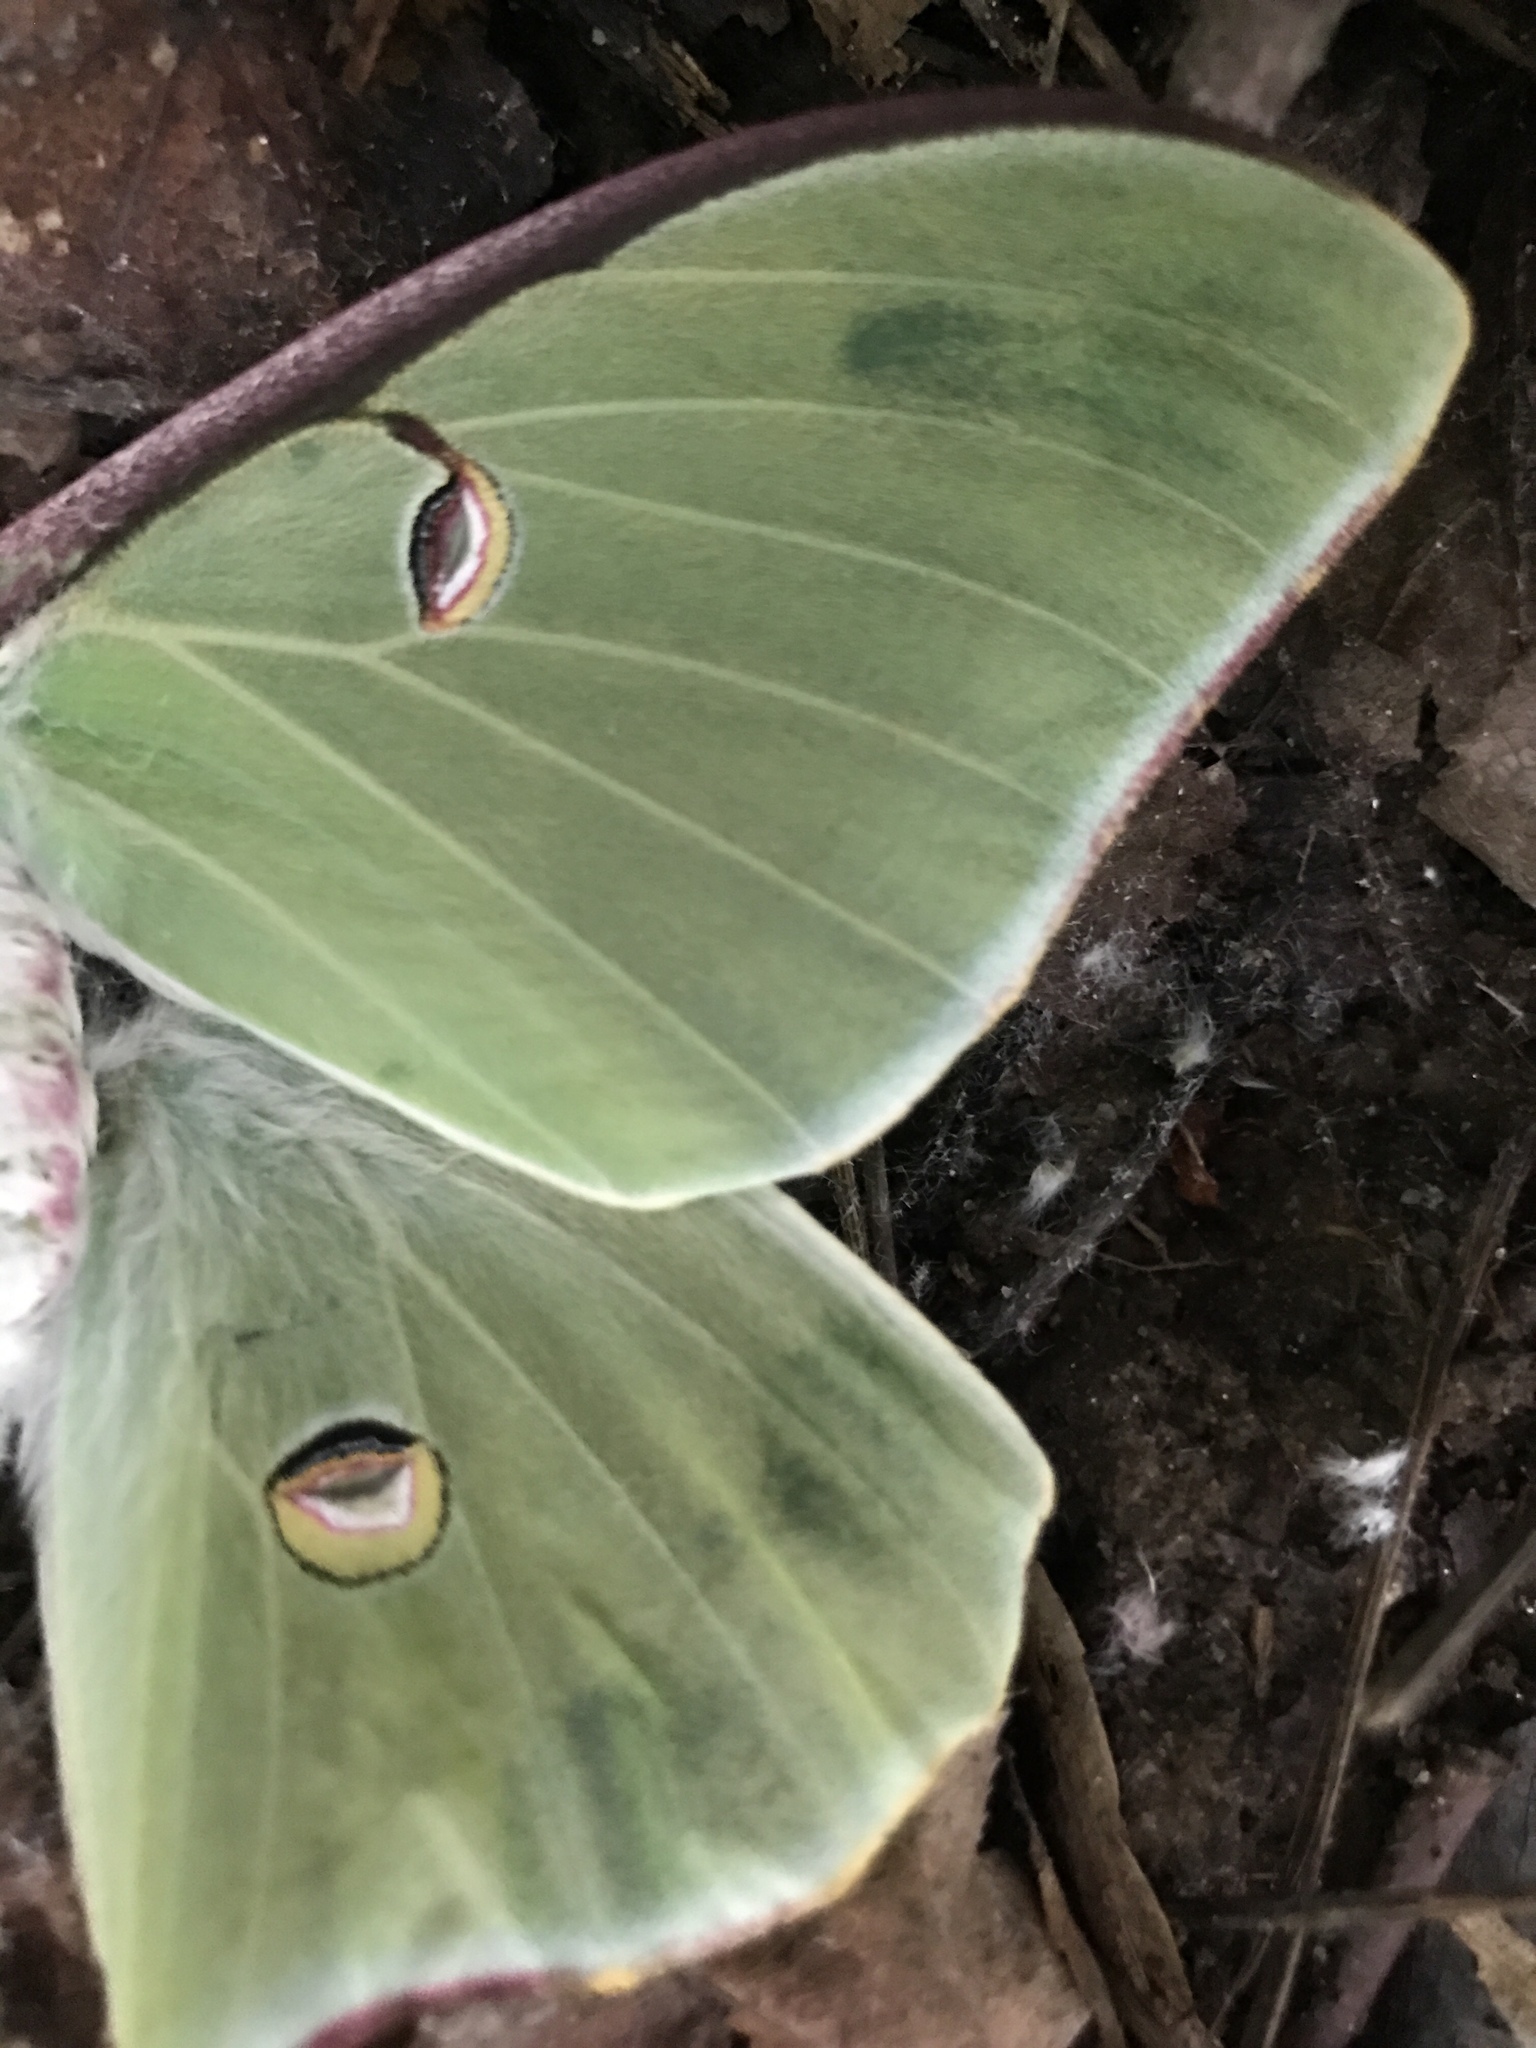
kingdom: Animalia
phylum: Arthropoda
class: Insecta
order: Lepidoptera
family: Saturniidae
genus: Actias
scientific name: Actias luna
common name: Luna moth
